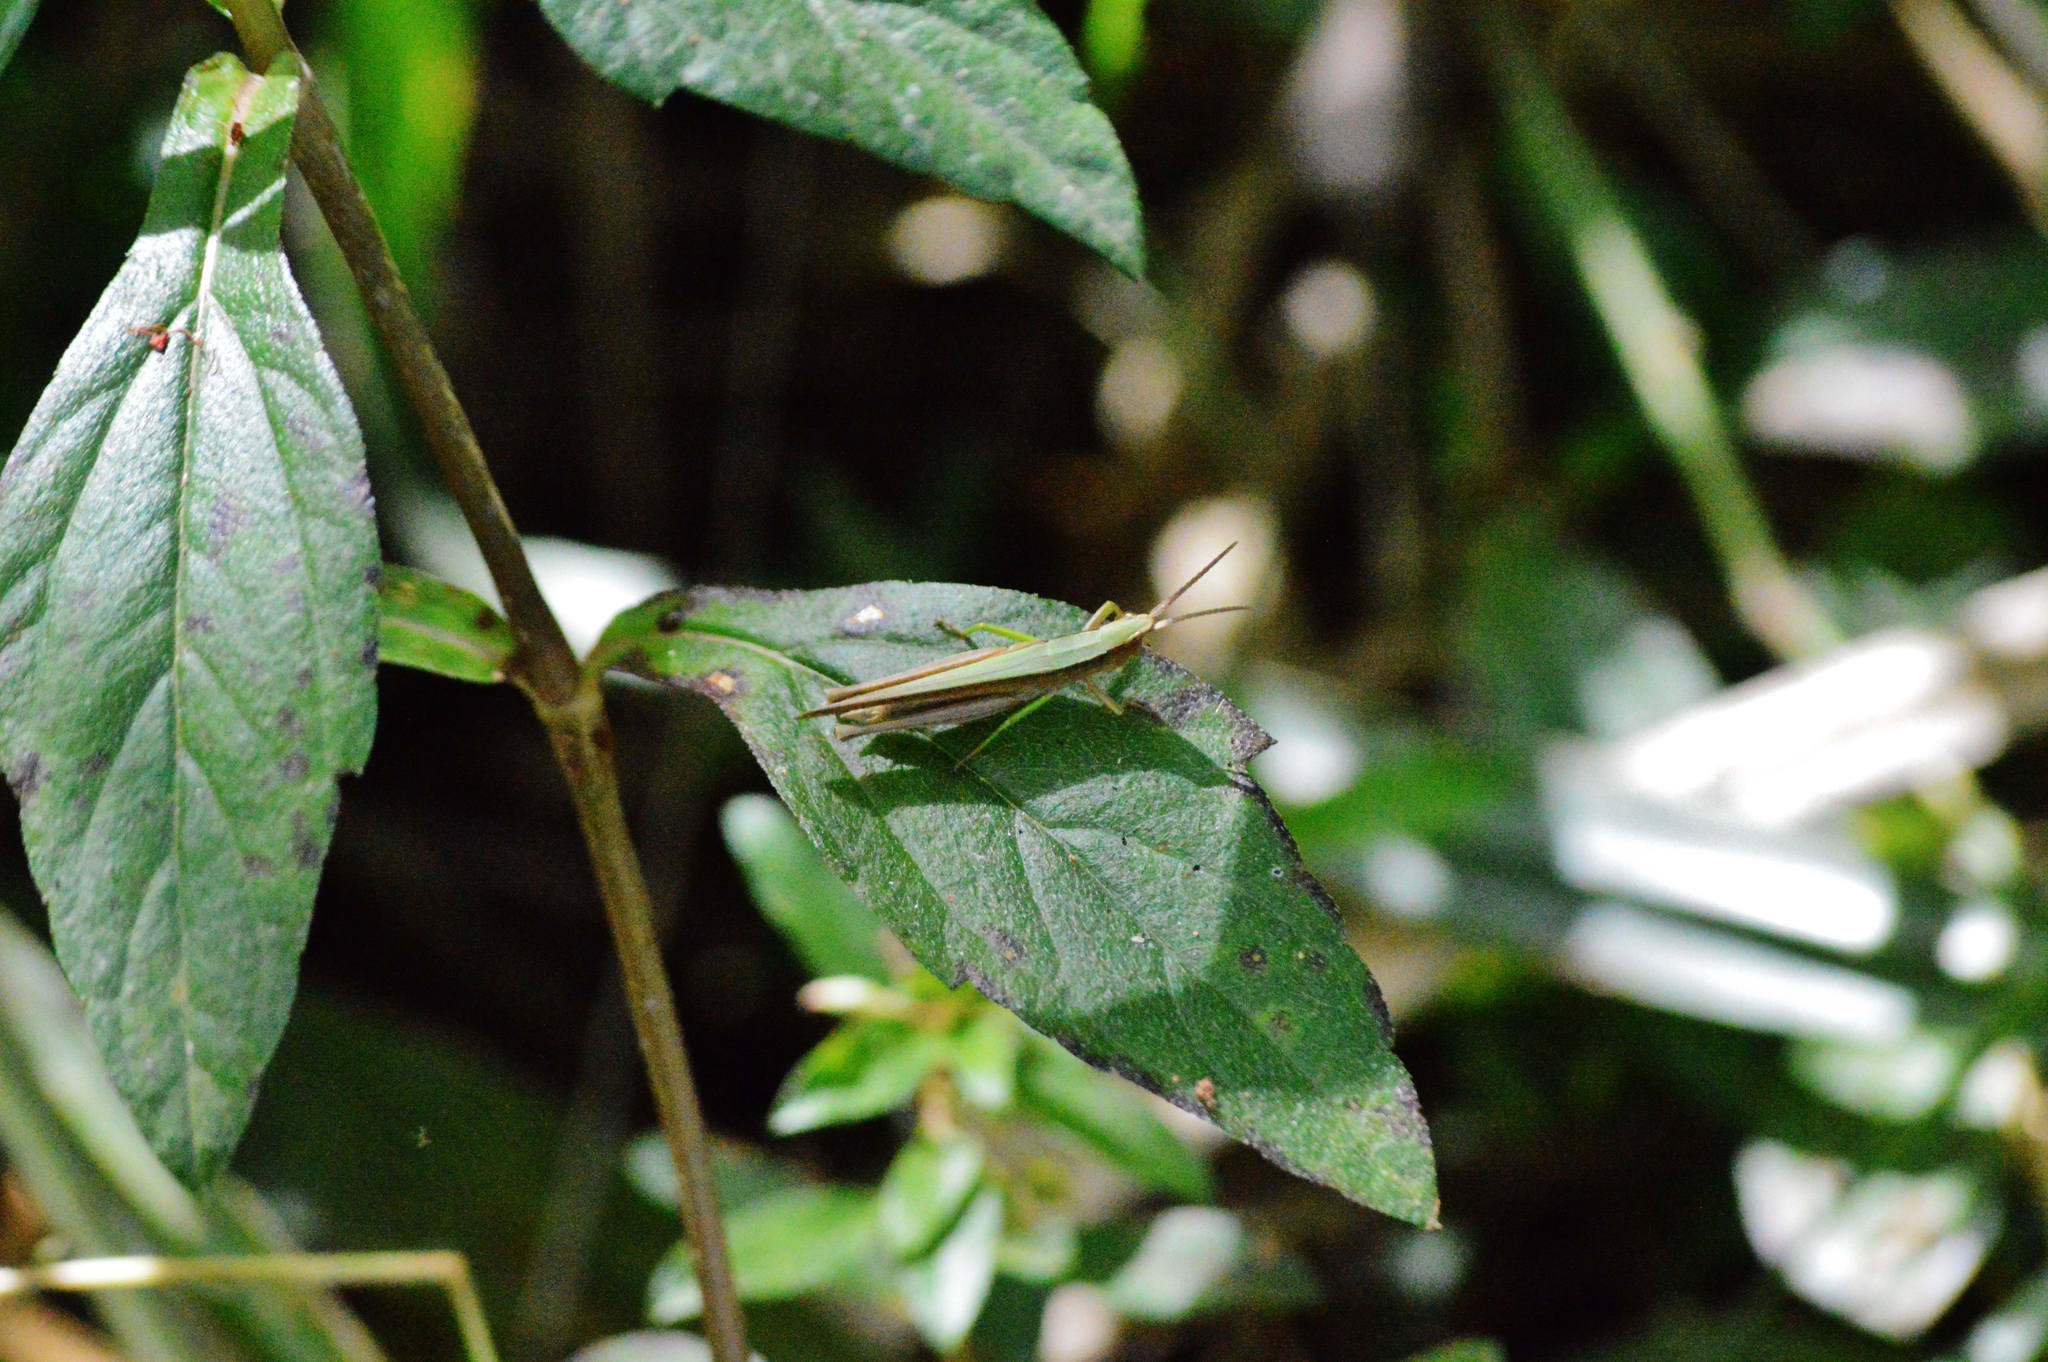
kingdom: Animalia
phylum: Arthropoda
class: Insecta
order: Orthoptera
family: Acrididae
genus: Metaleptea
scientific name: Metaleptea adspersa
